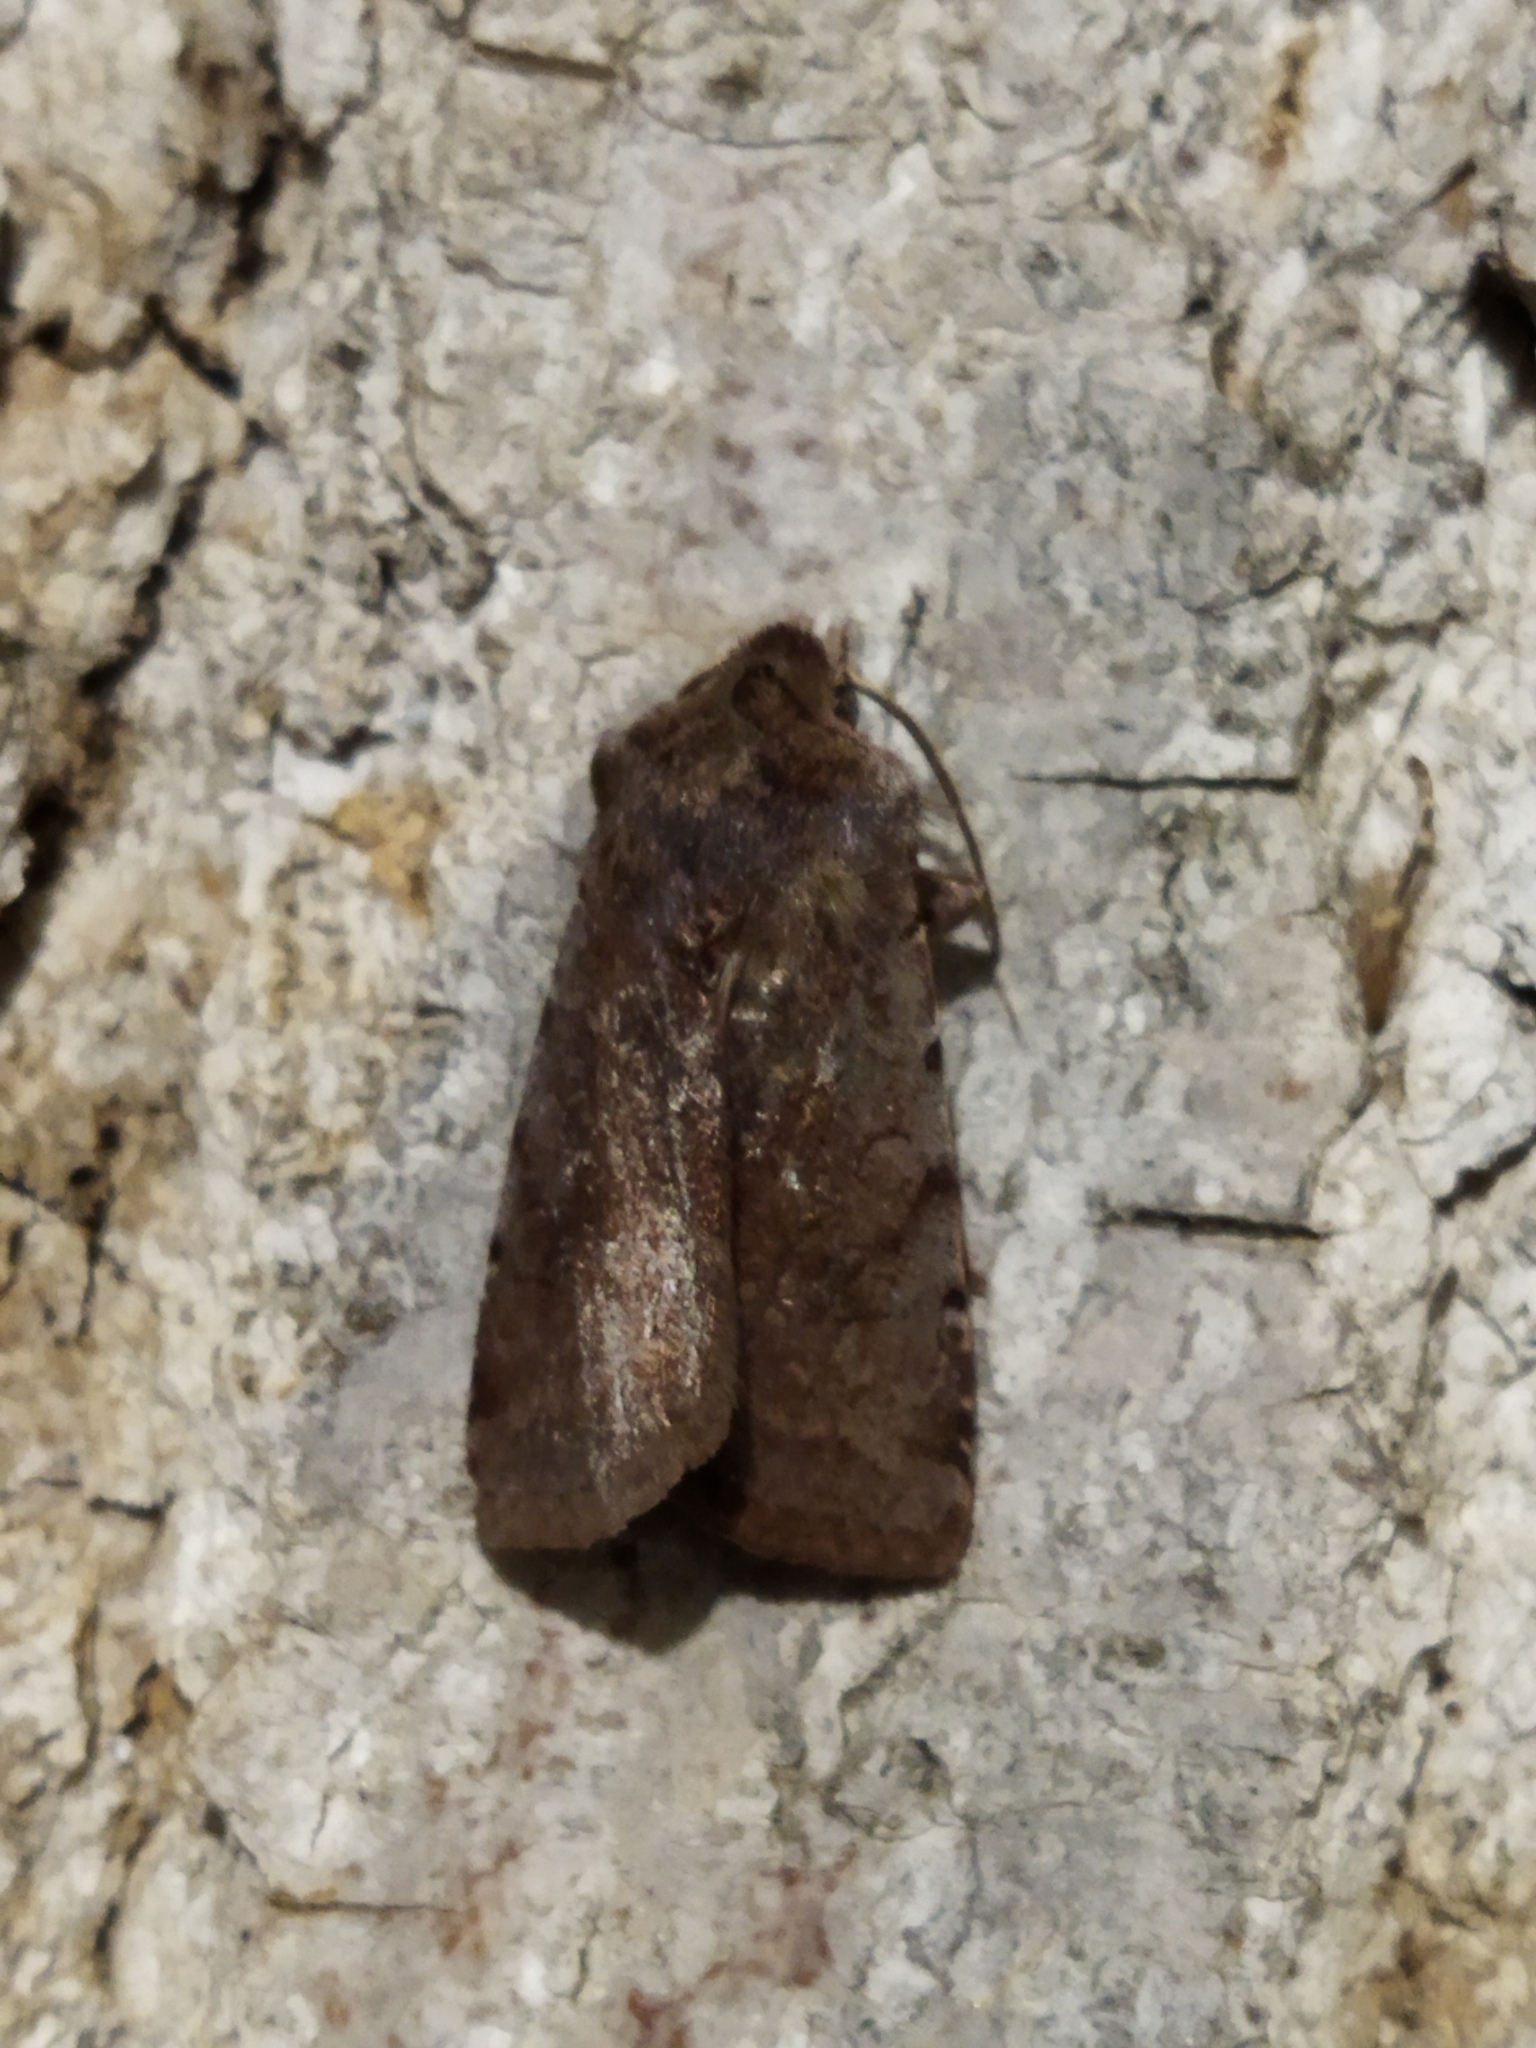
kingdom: Animalia
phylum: Arthropoda
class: Insecta
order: Lepidoptera
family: Noctuidae
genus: Cerastis
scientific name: Cerastis rubricosa
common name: Red chestnut
